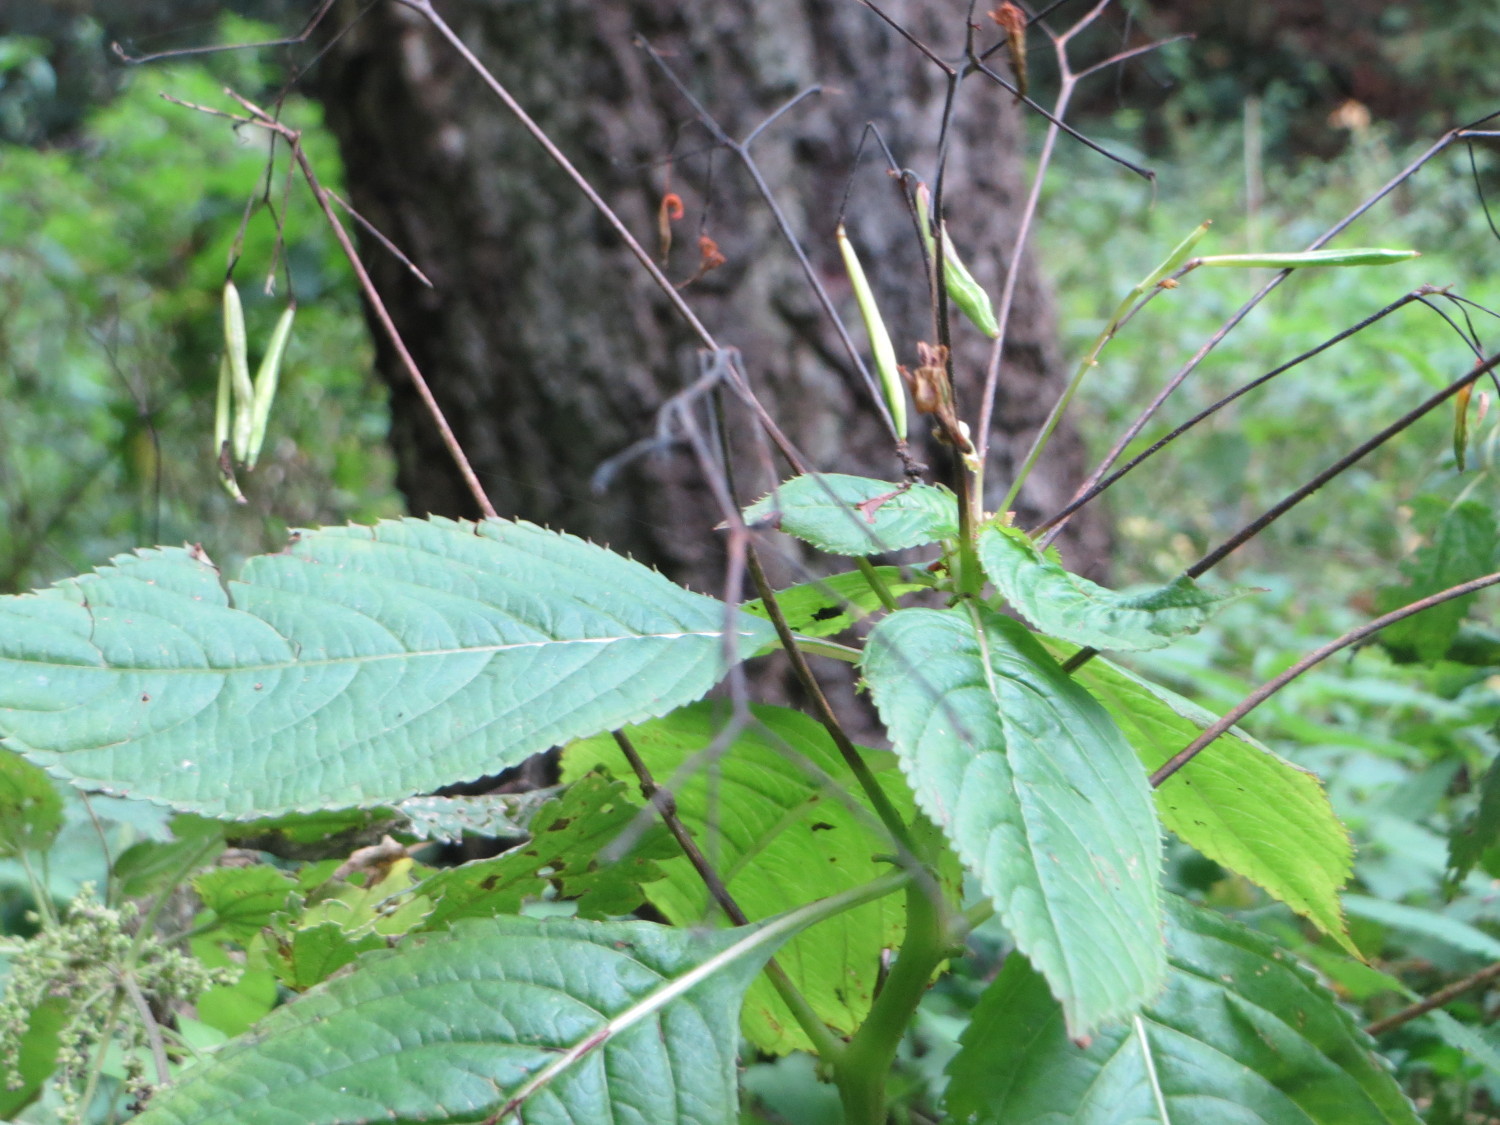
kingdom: Plantae
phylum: Tracheophyta
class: Magnoliopsida
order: Ericales
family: Balsaminaceae
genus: Impatiens
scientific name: Impatiens parviflora
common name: Small balsam
